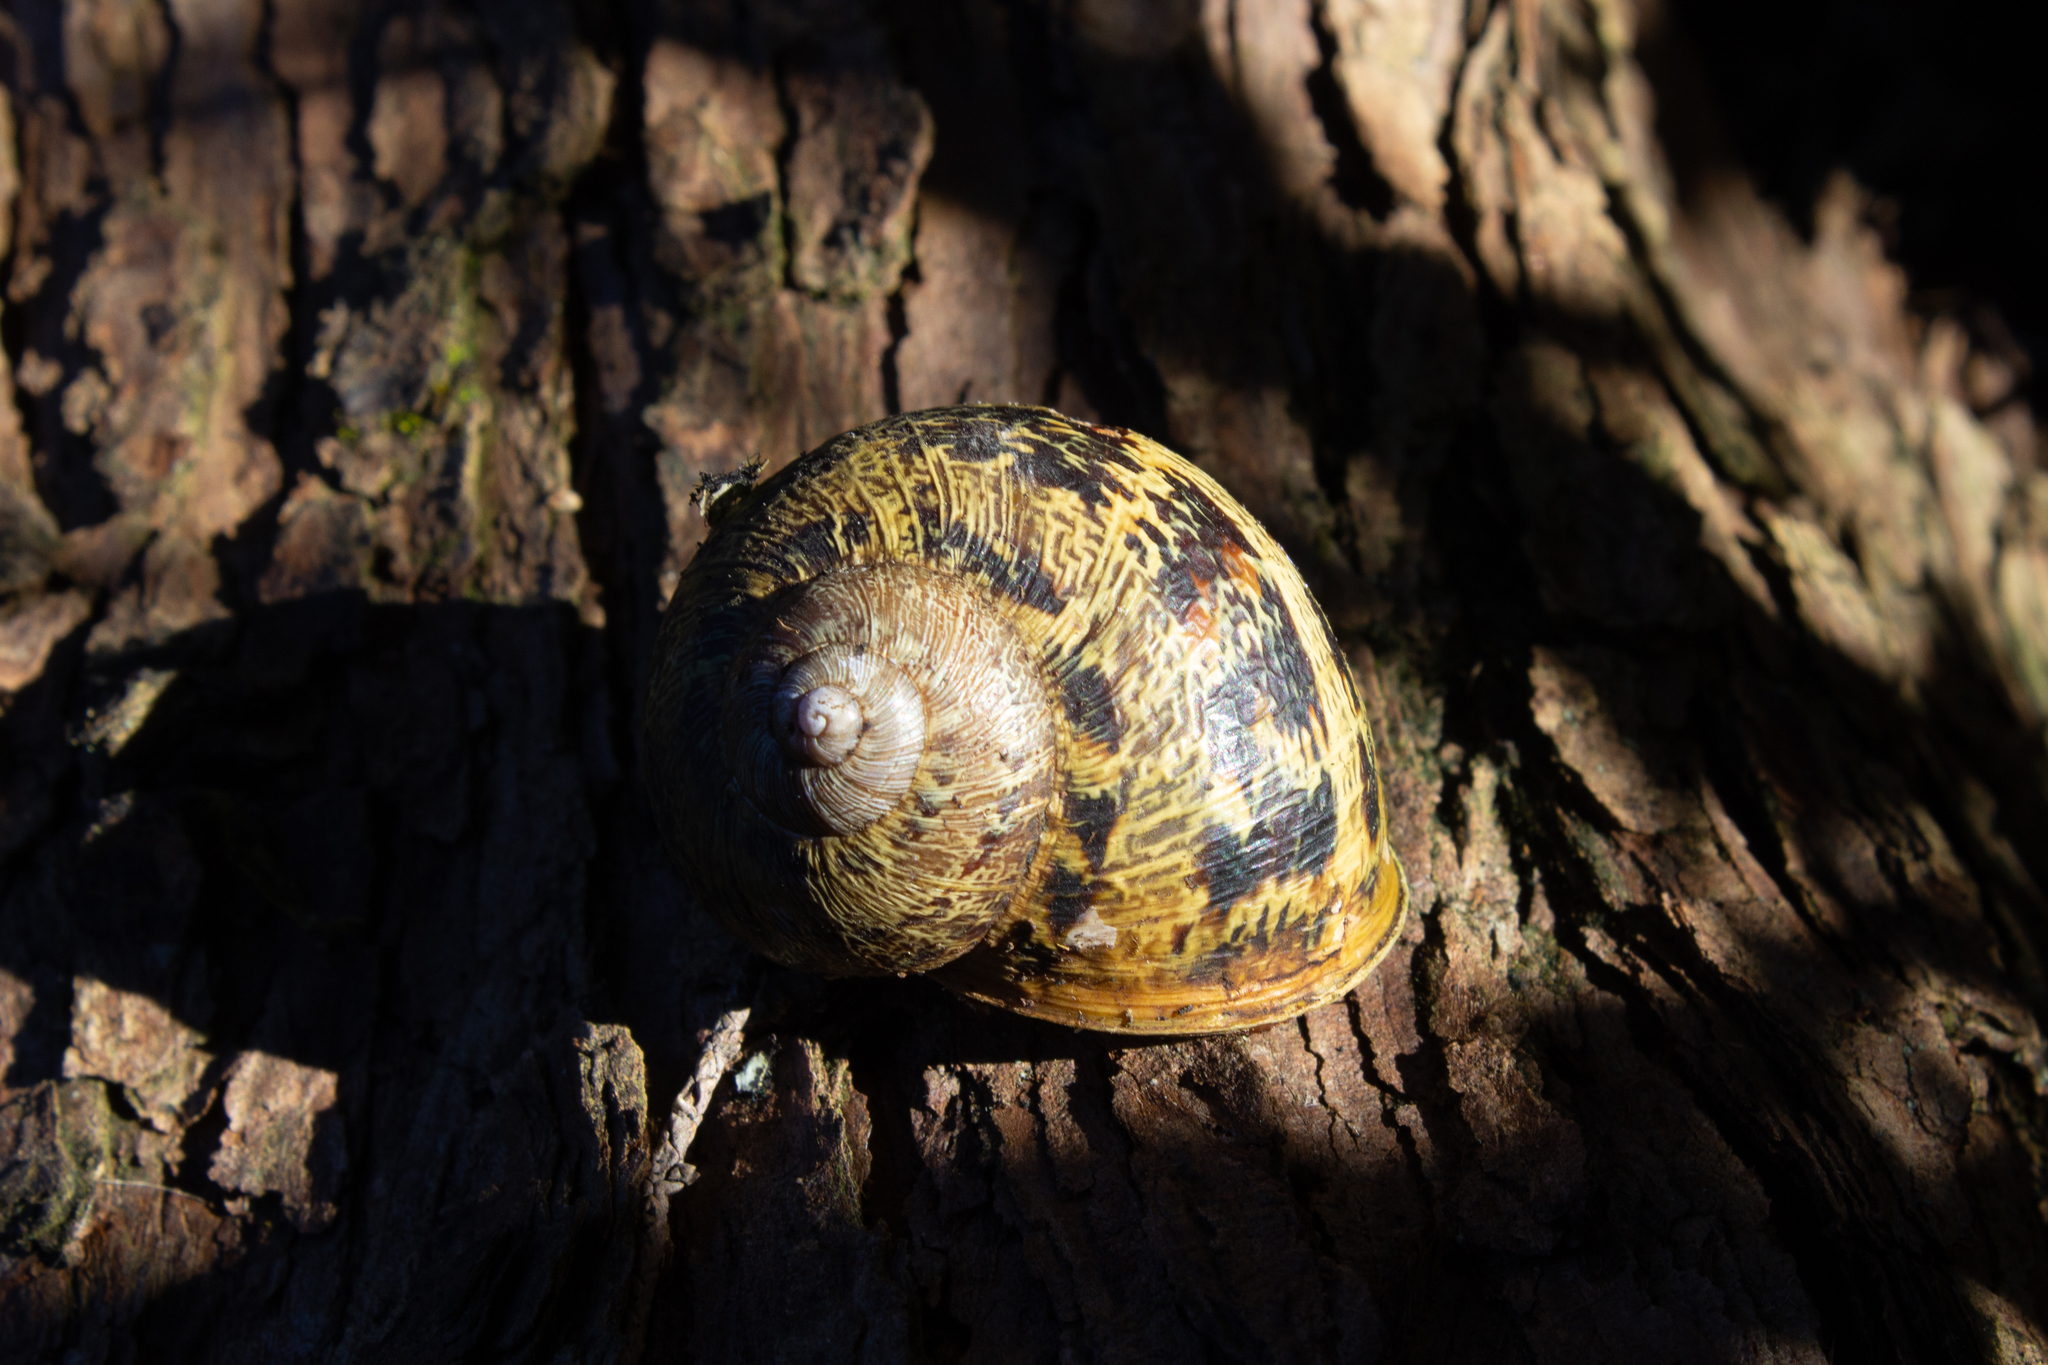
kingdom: Animalia
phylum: Mollusca
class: Gastropoda
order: Stylommatophora
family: Helicidae
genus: Cornu
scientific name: Cornu aspersum
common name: Brown garden snail
